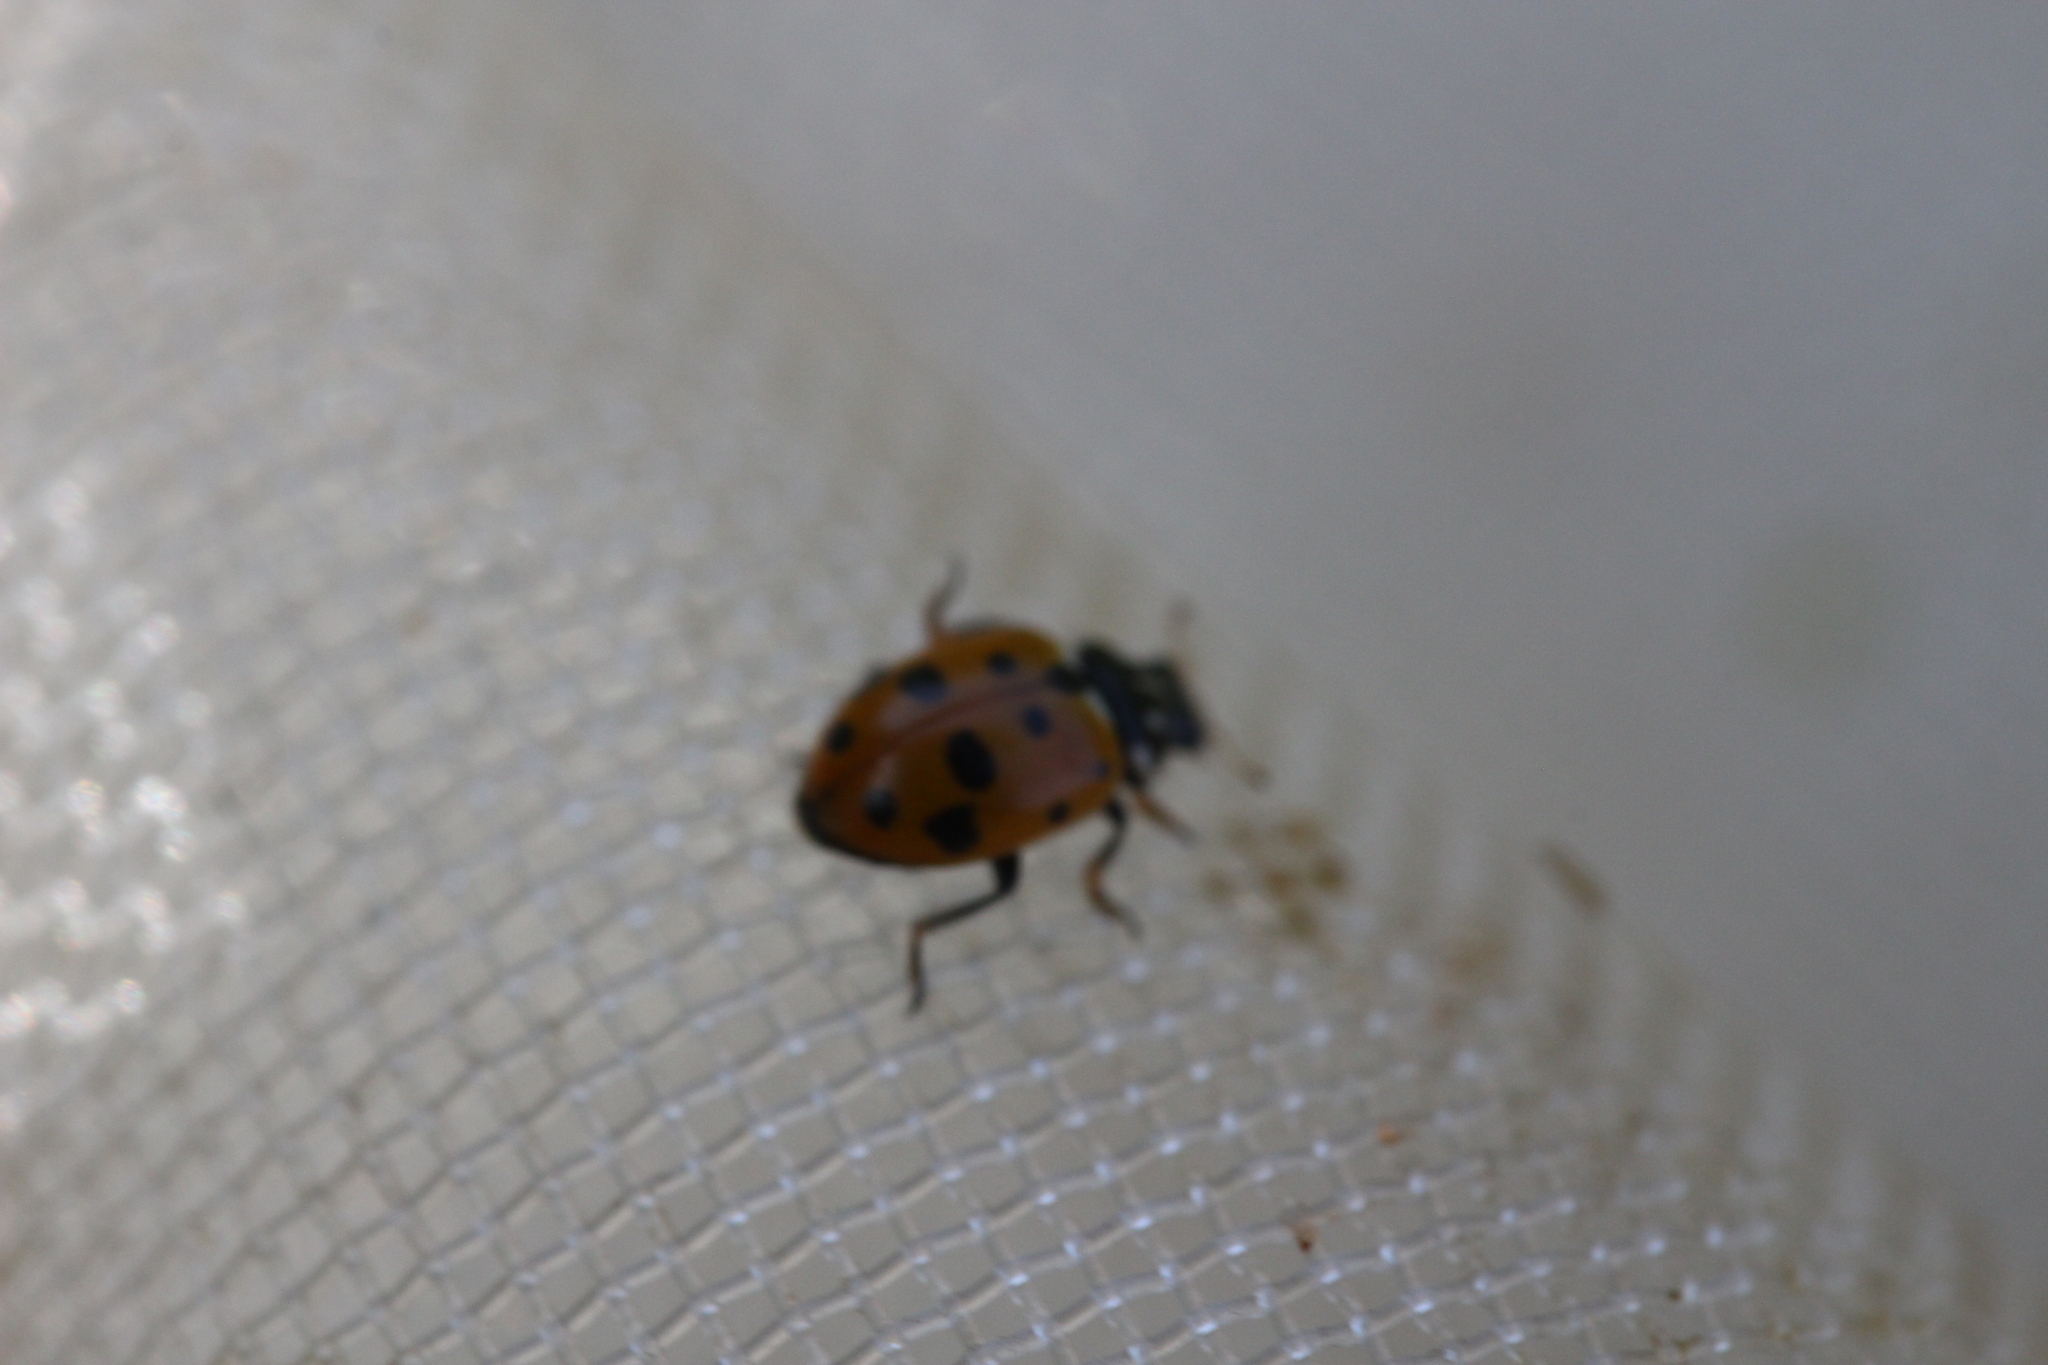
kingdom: Animalia
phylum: Arthropoda
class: Insecta
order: Coleoptera
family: Coccinellidae
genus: Hippodamia
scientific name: Hippodamia variegata
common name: Ladybird beetle
